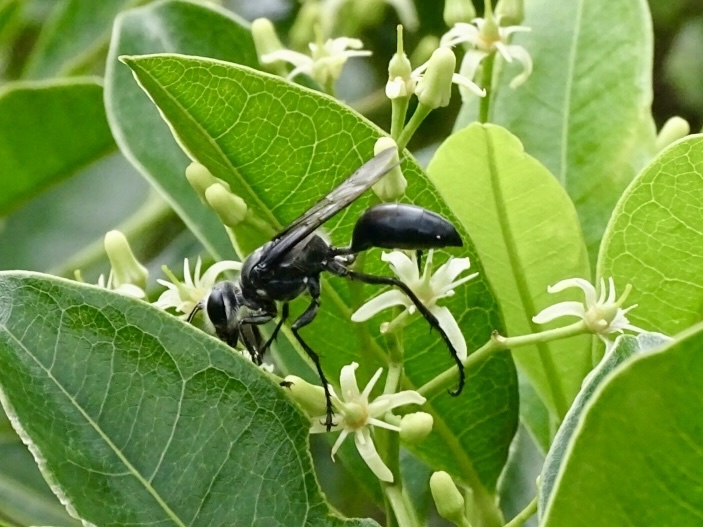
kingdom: Animalia
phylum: Arthropoda
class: Insecta
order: Hymenoptera
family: Sphecidae
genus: Sphex
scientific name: Sphex argentatus
